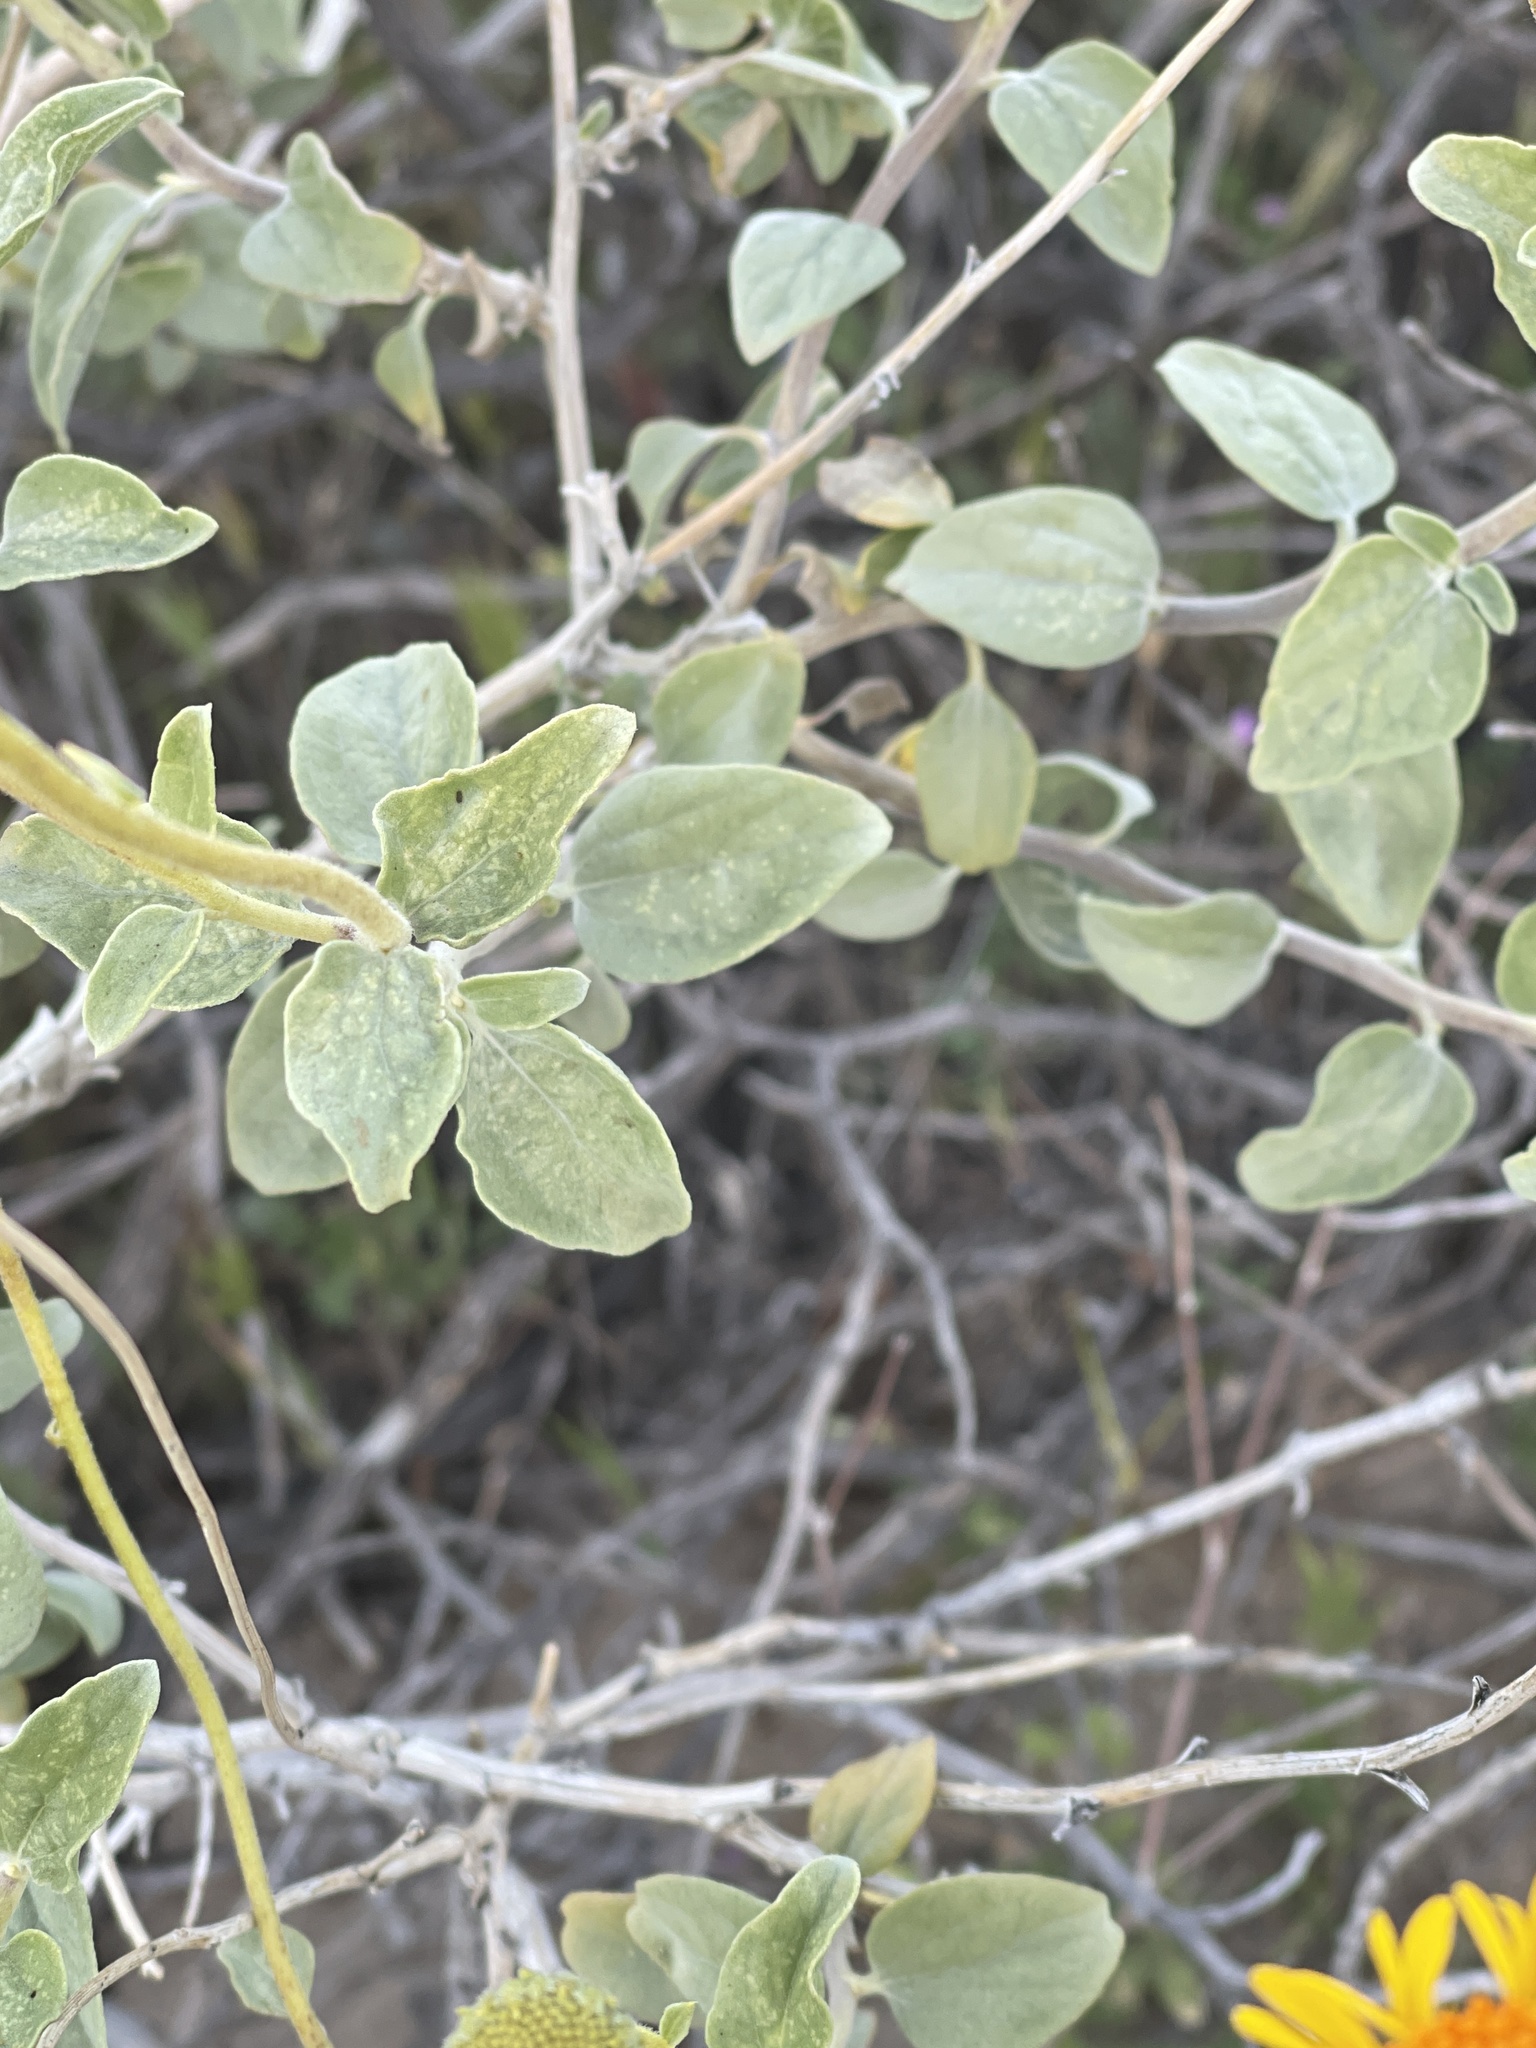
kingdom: Plantae
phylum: Tracheophyta
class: Magnoliopsida
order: Asterales
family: Asteraceae
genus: Encelia
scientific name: Encelia actoni
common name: Acton encelia
